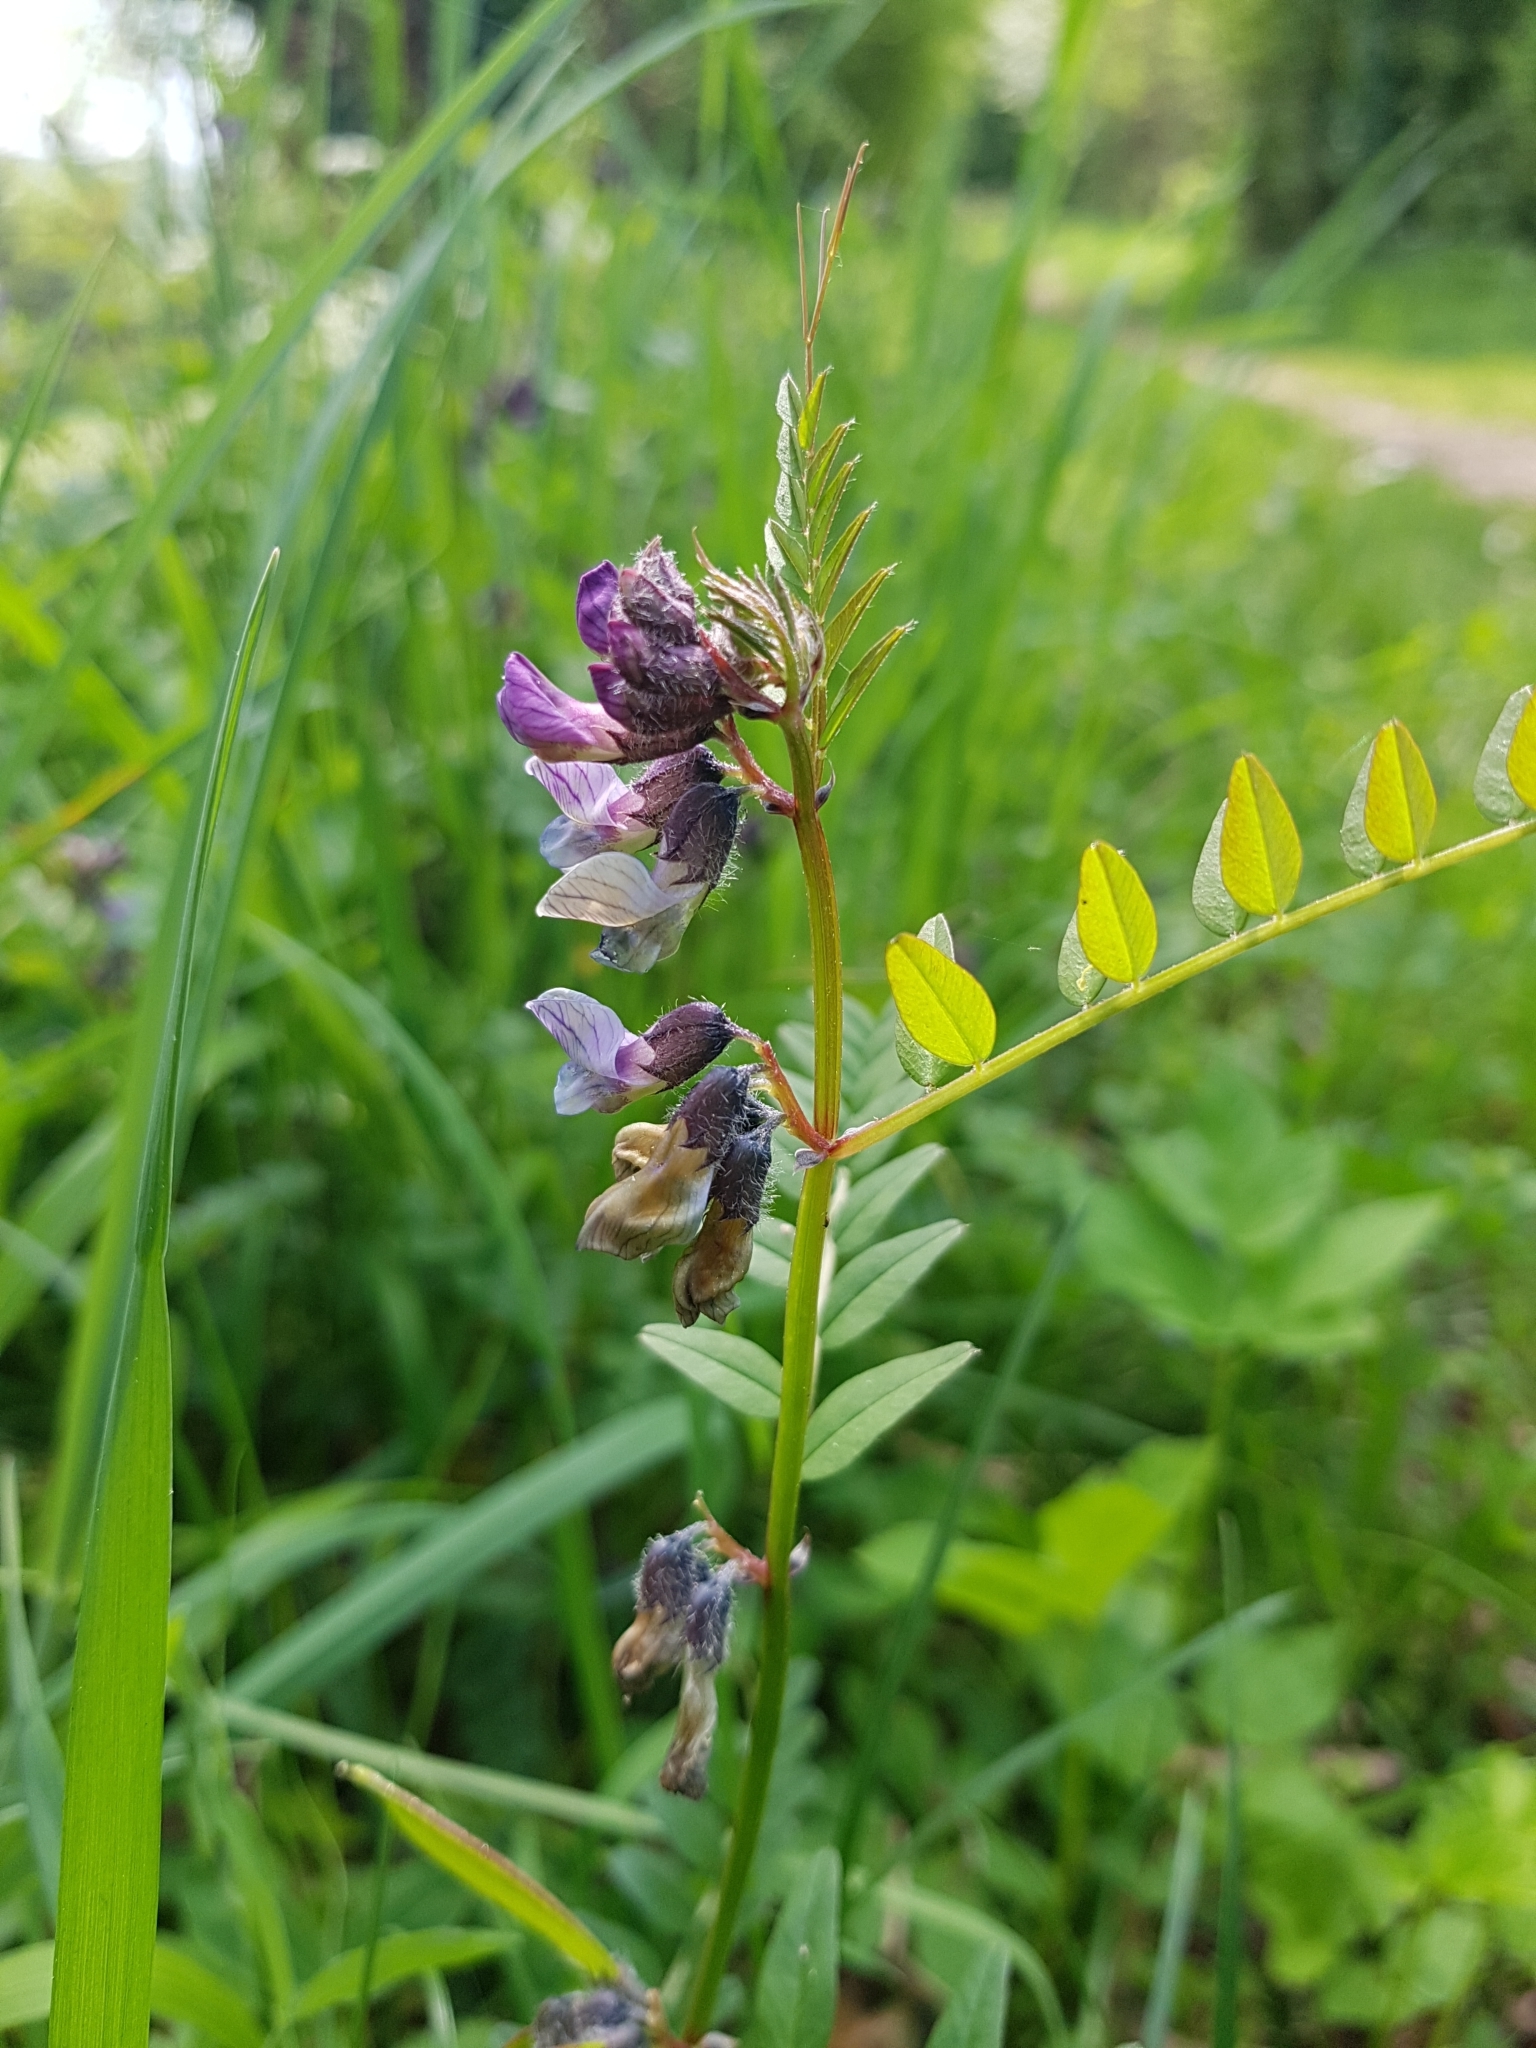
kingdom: Plantae
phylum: Tracheophyta
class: Magnoliopsida
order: Fabales
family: Fabaceae
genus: Vicia
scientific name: Vicia sepium
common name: Bush vetch
